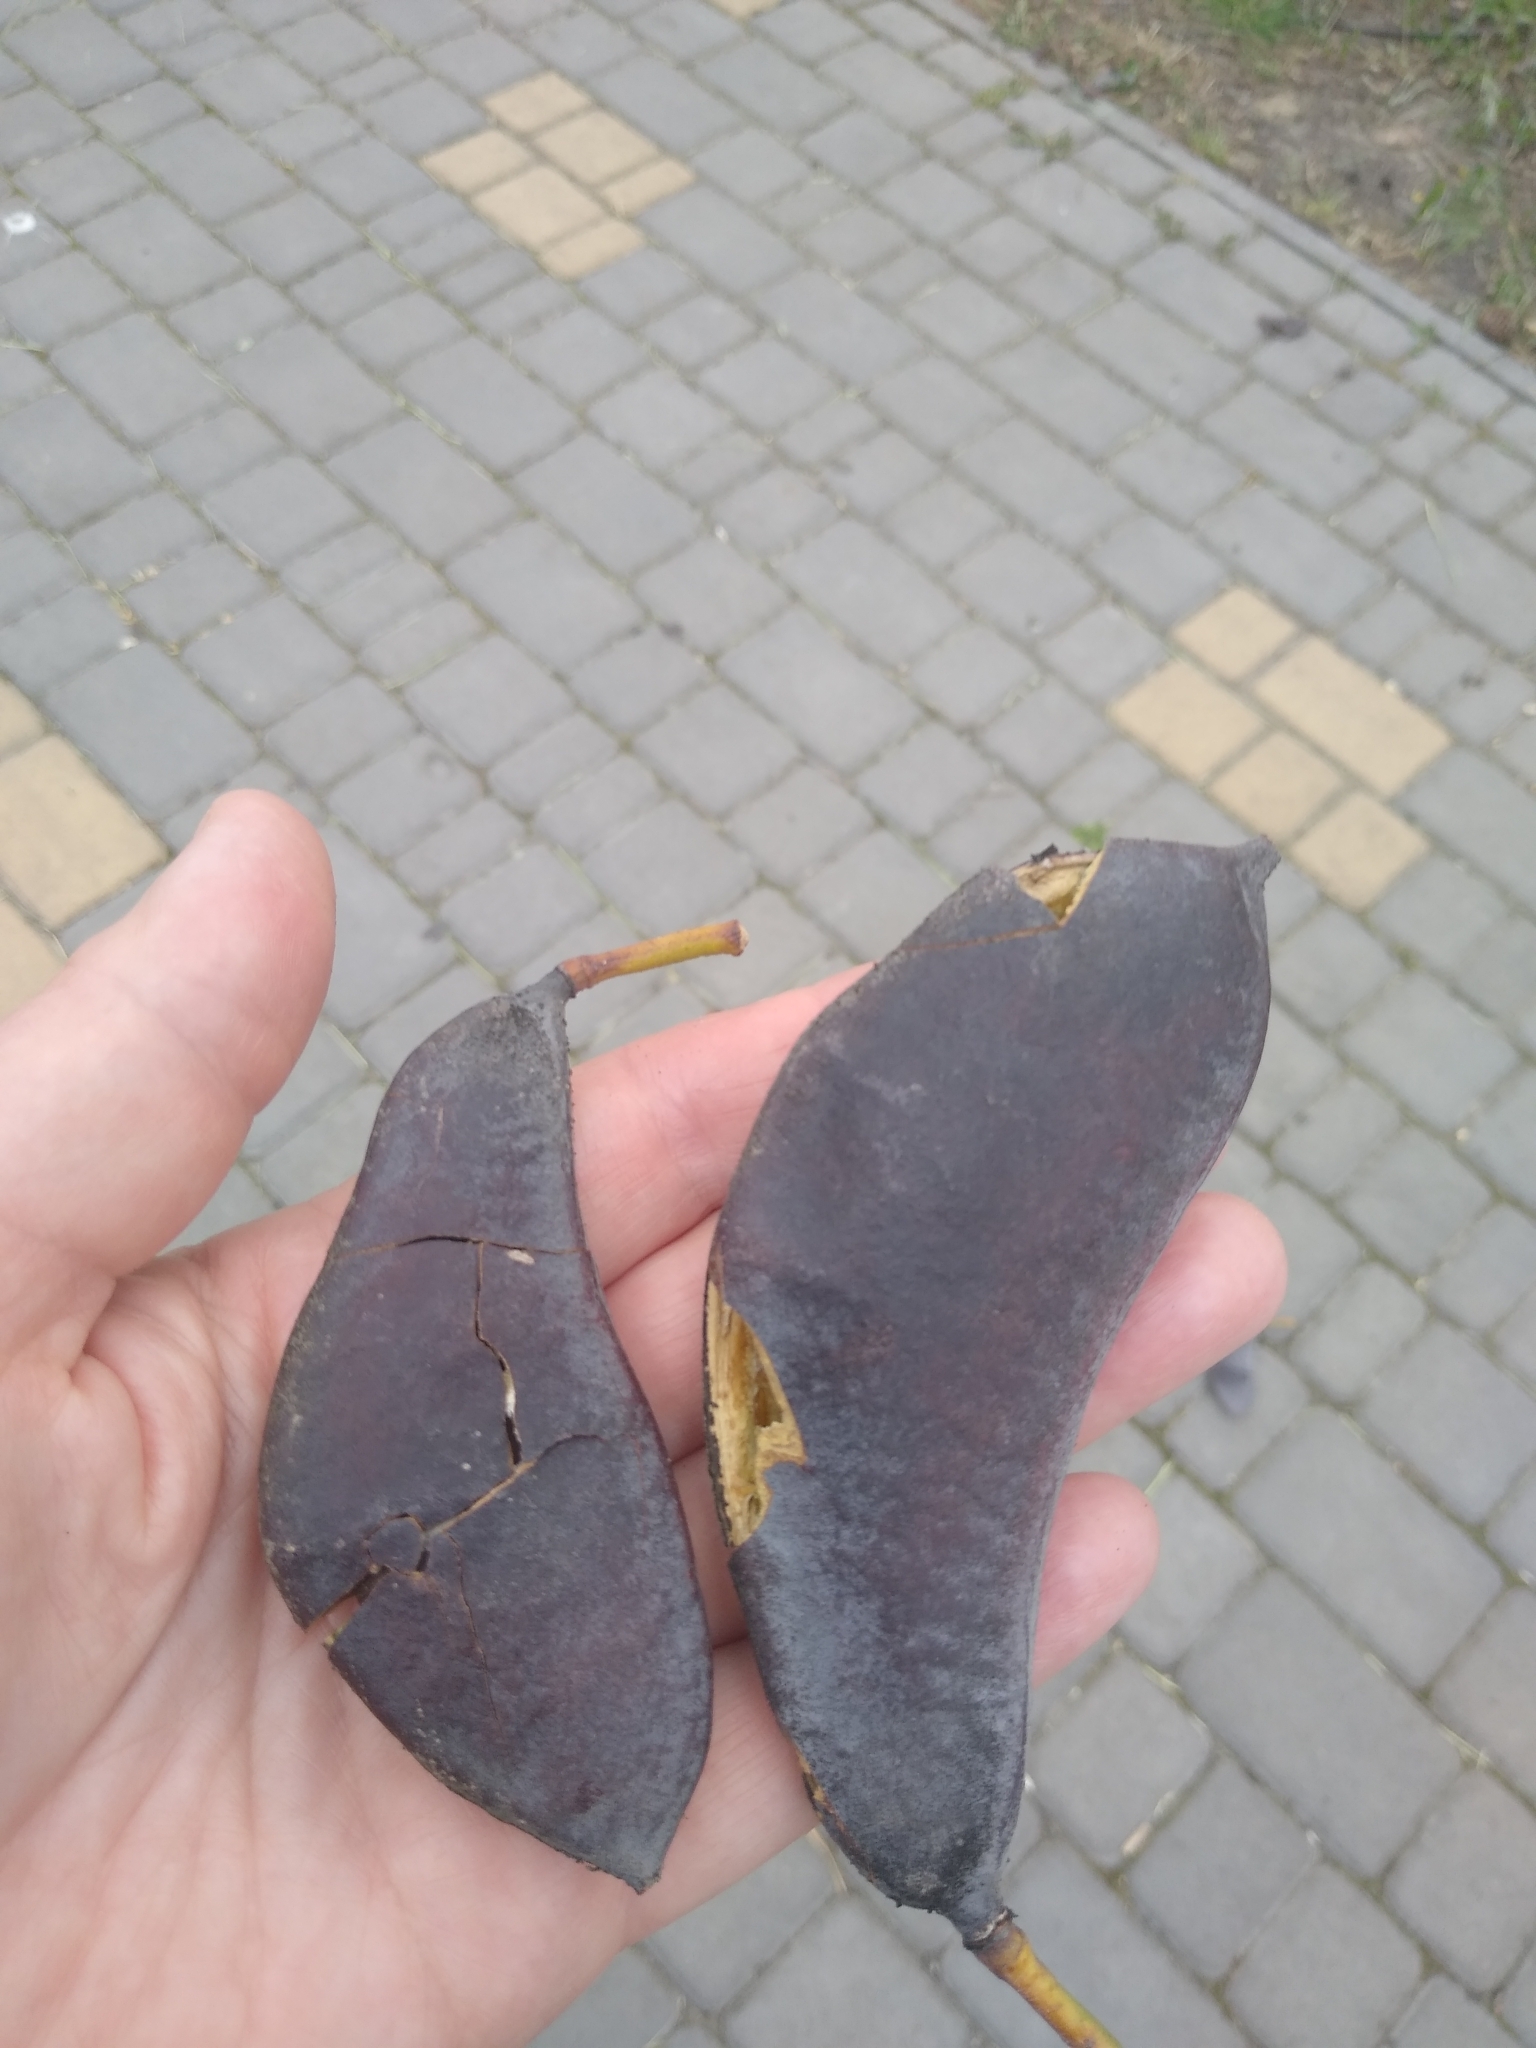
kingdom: Plantae
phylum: Tracheophyta
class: Magnoliopsida
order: Fabales
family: Fabaceae
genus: Gymnocladus
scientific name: Gymnocladus dioicus
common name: Kentucky coffee-tree
